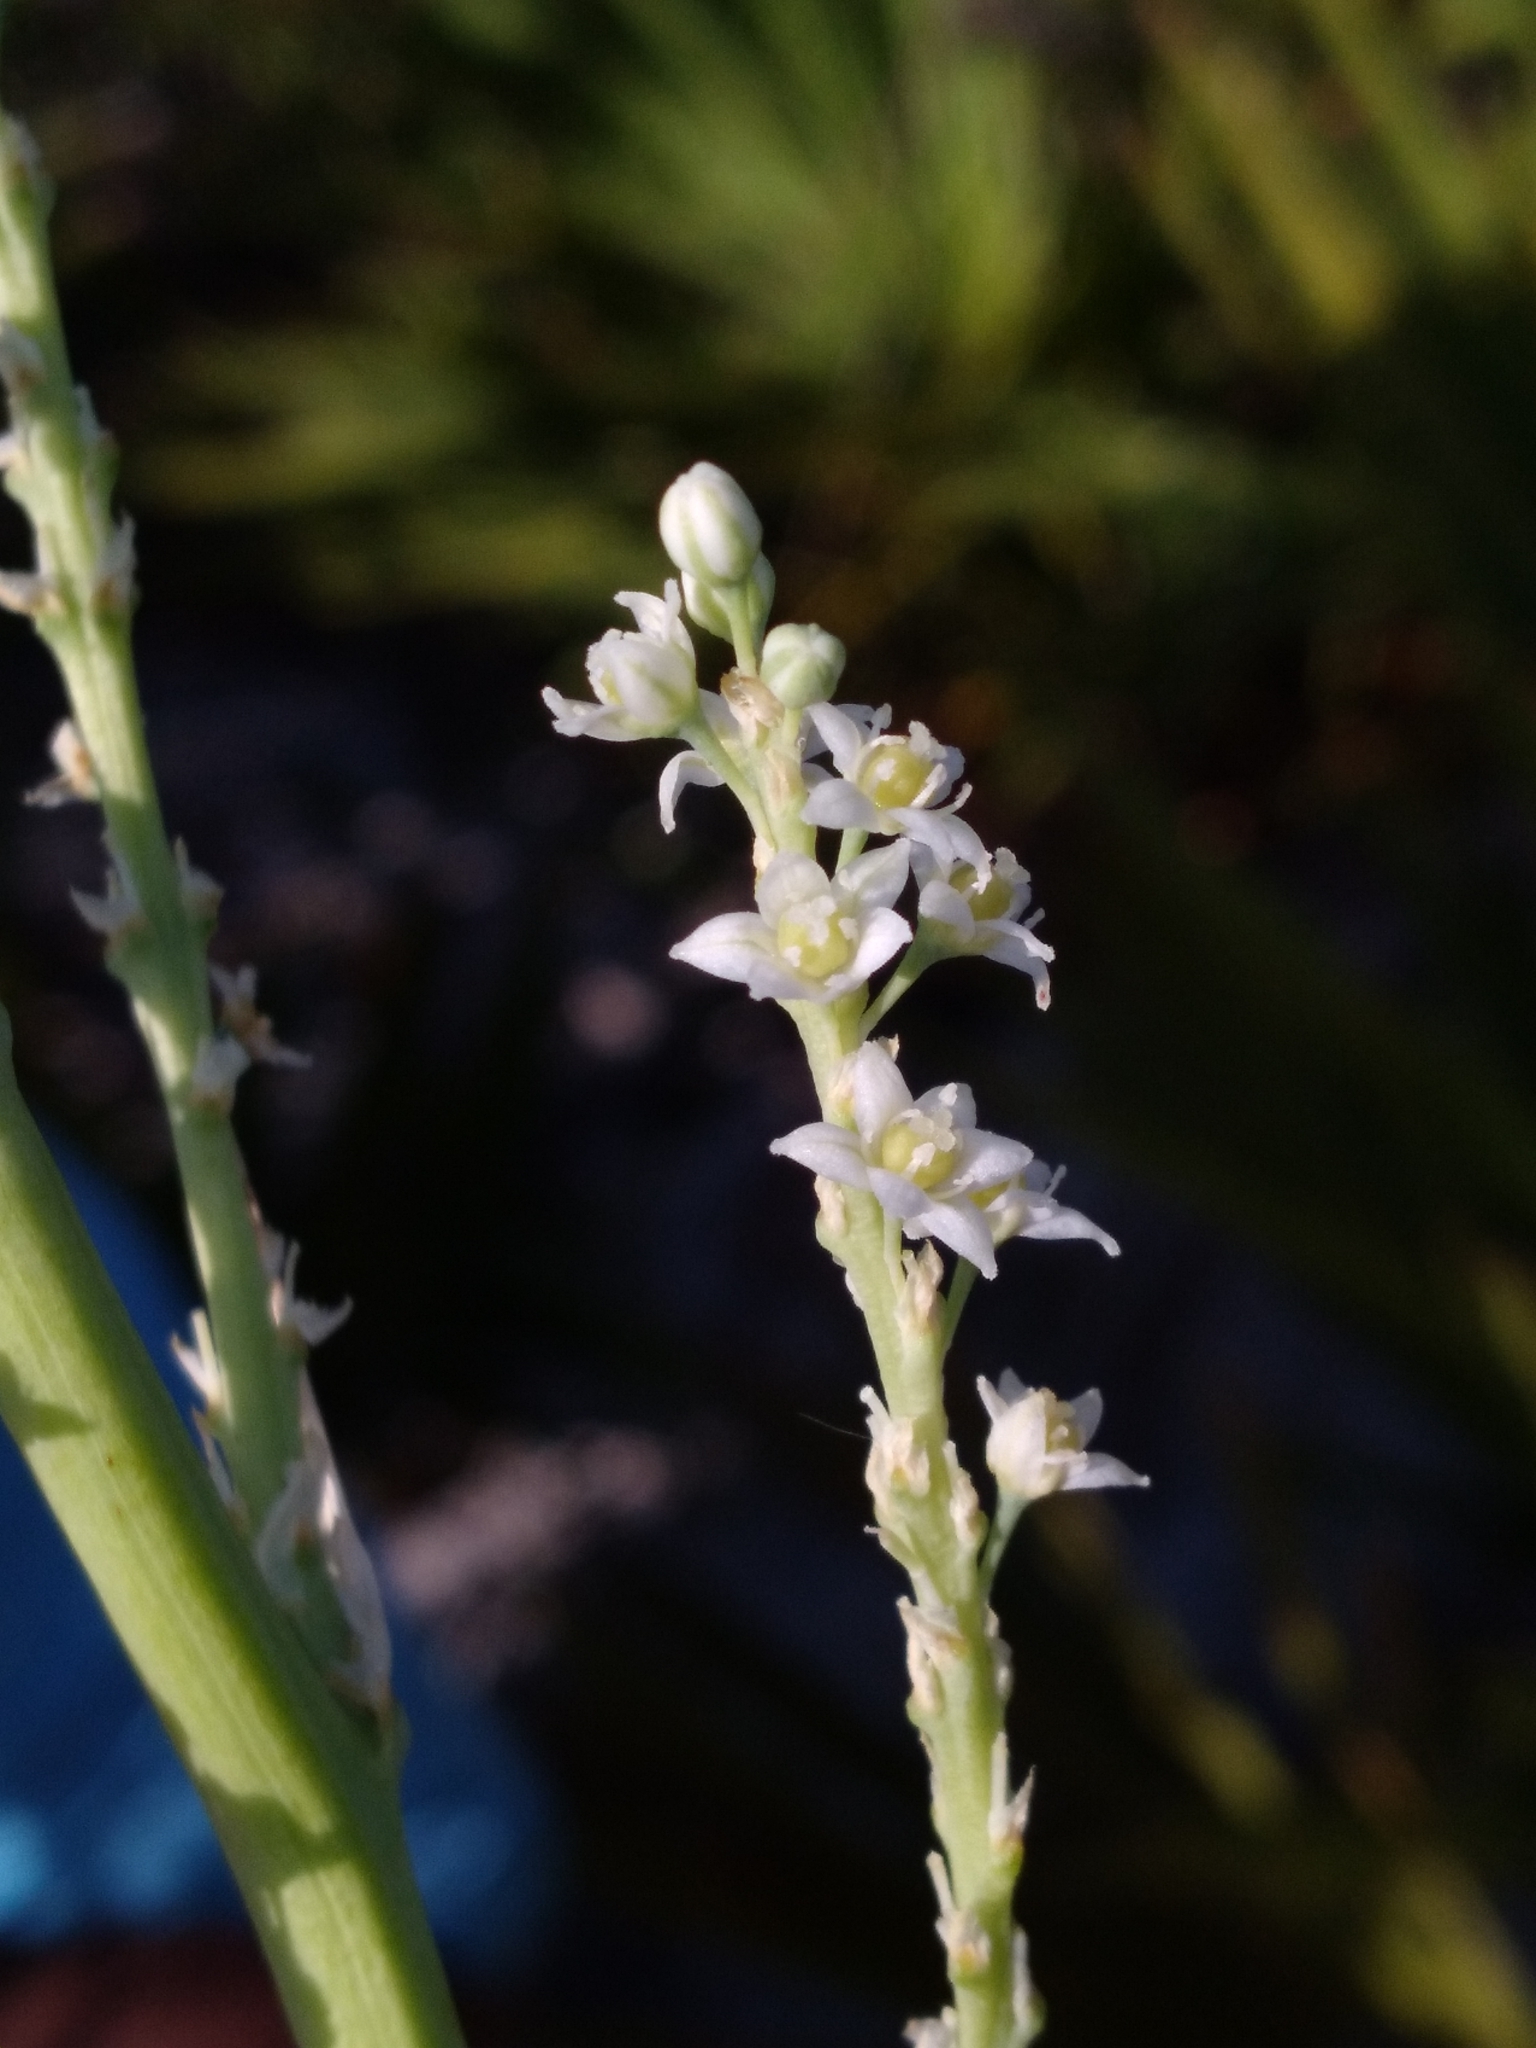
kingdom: Plantae
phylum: Tracheophyta
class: Liliopsida
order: Asparagales
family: Asparagaceae
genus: Nolina
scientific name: Nolina brittoniana
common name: Britton's bear-grass
